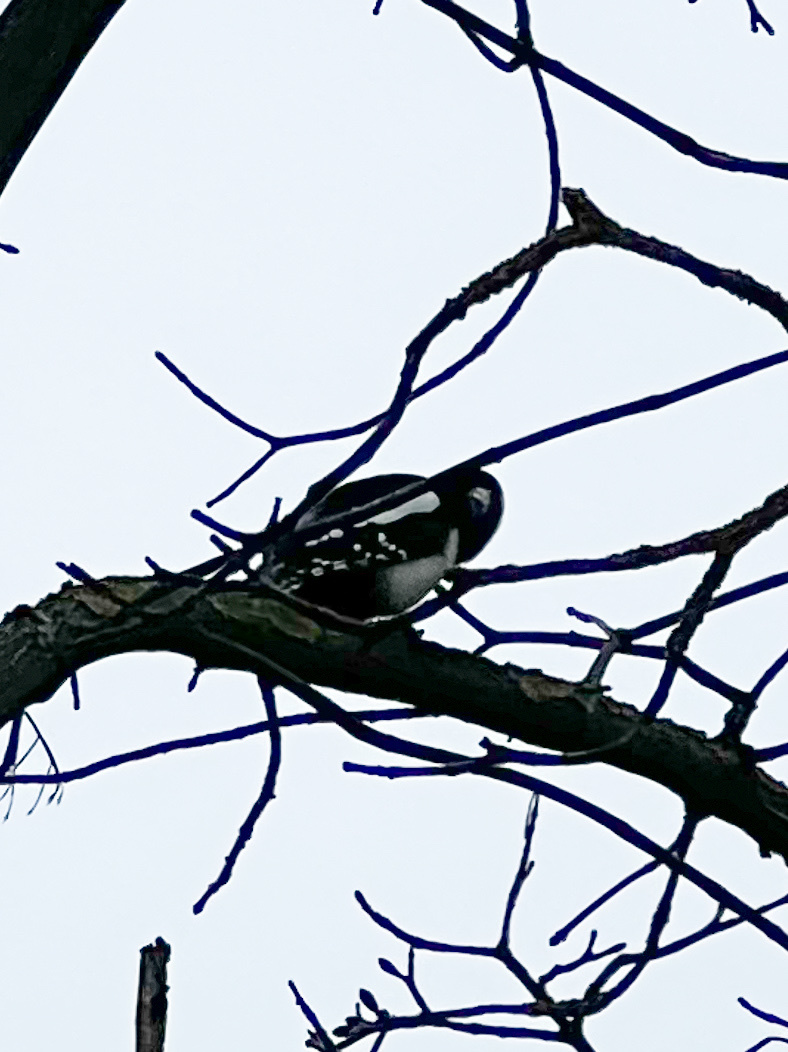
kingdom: Animalia
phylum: Chordata
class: Aves
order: Piciformes
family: Picidae
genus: Dendrocopos
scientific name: Dendrocopos major
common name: Great spotted woodpecker
